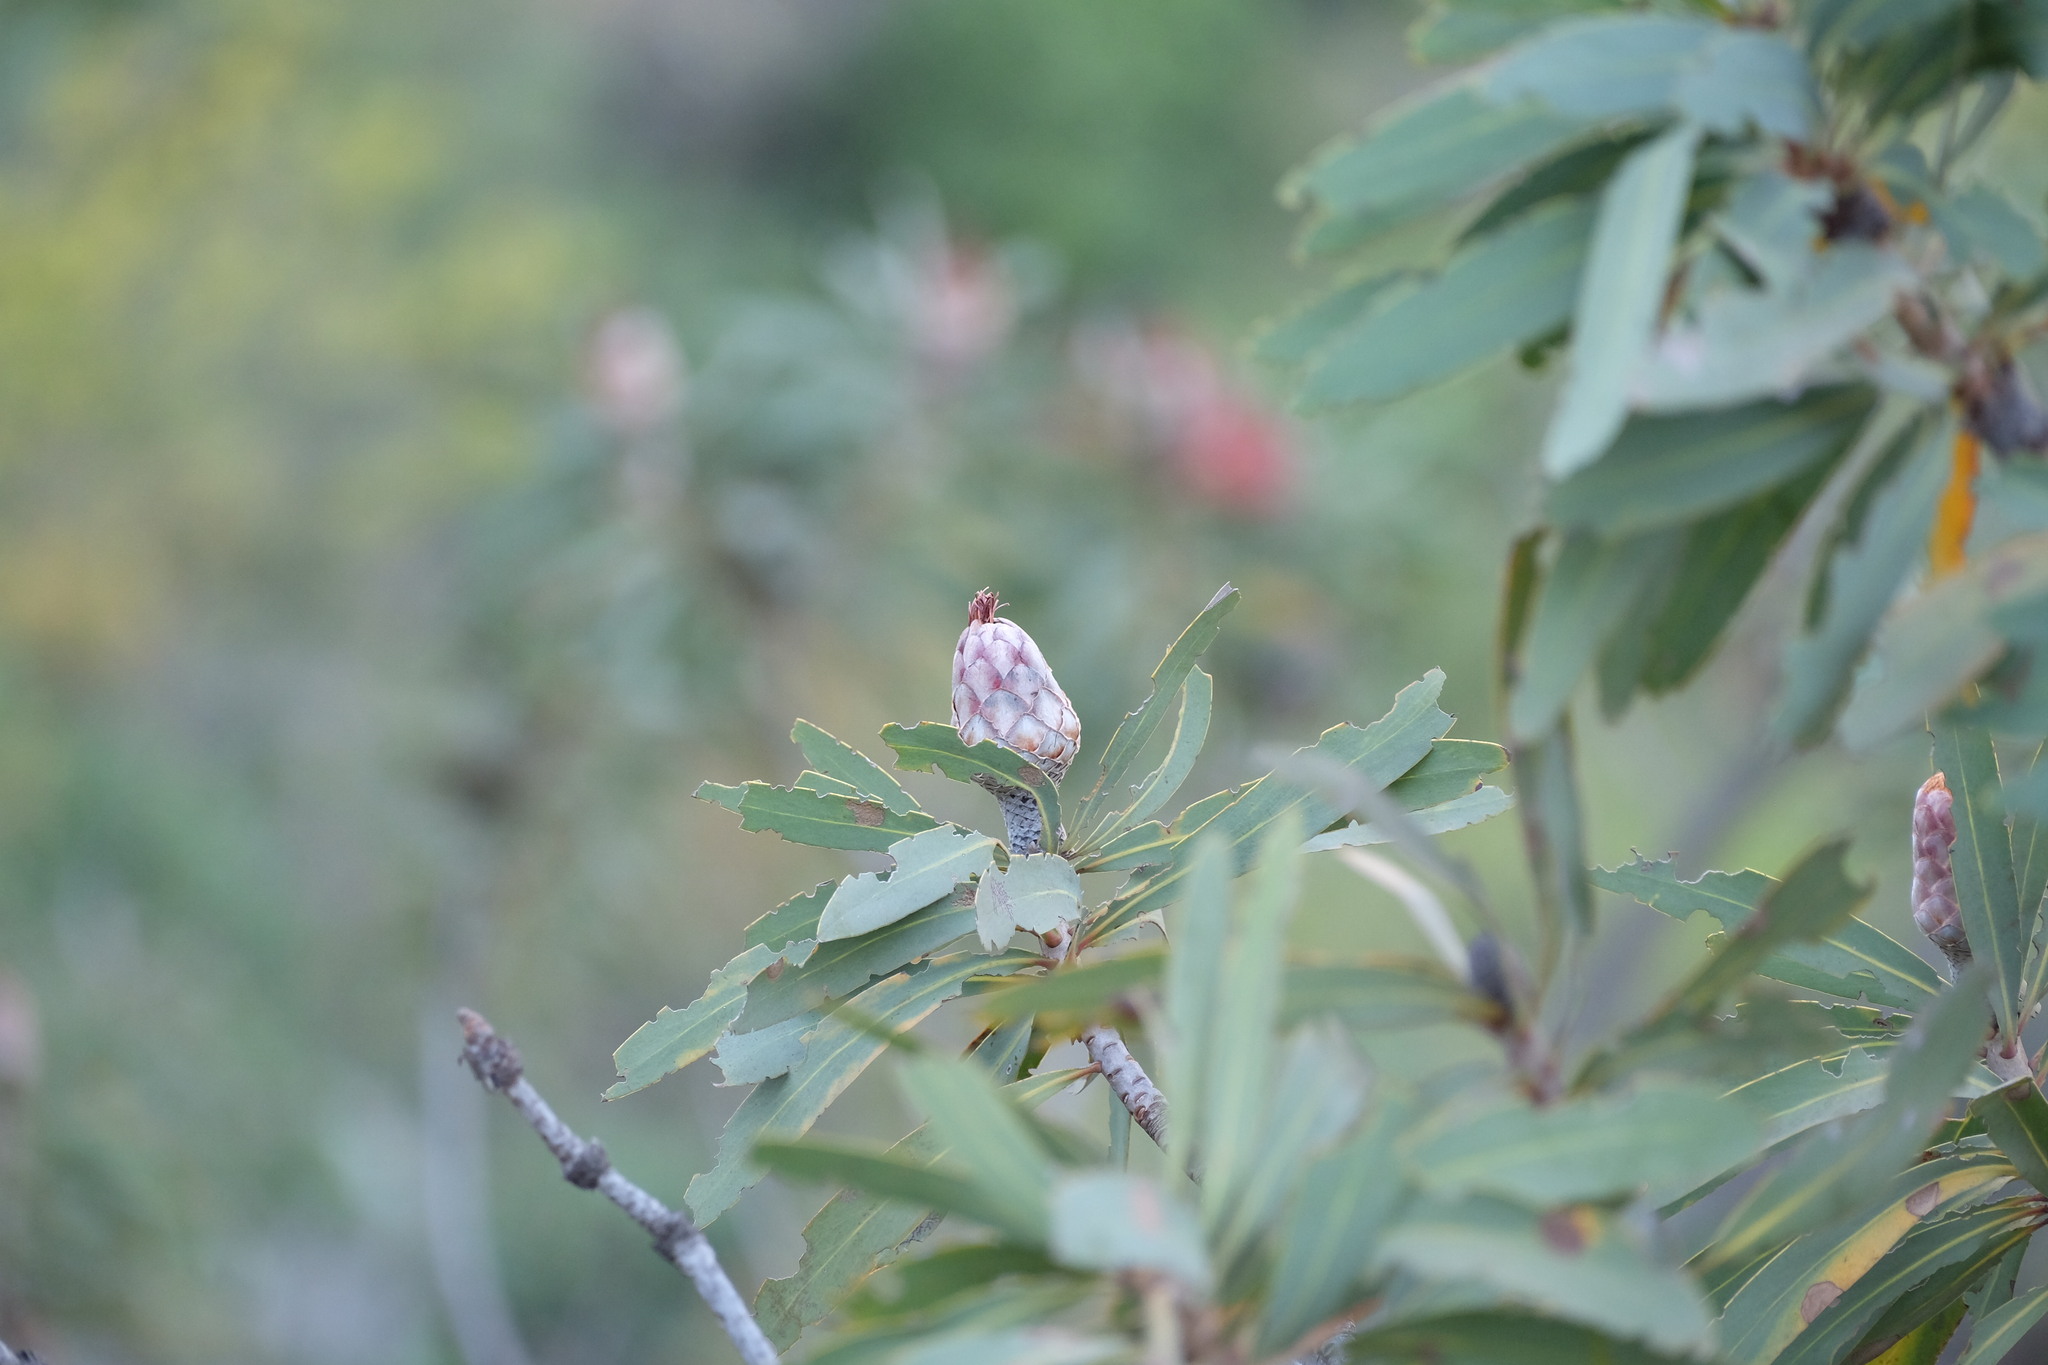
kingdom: Plantae
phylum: Tracheophyta
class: Magnoliopsida
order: Proteales
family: Proteaceae
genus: Protea
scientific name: Protea laetans
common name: Blyde protea
